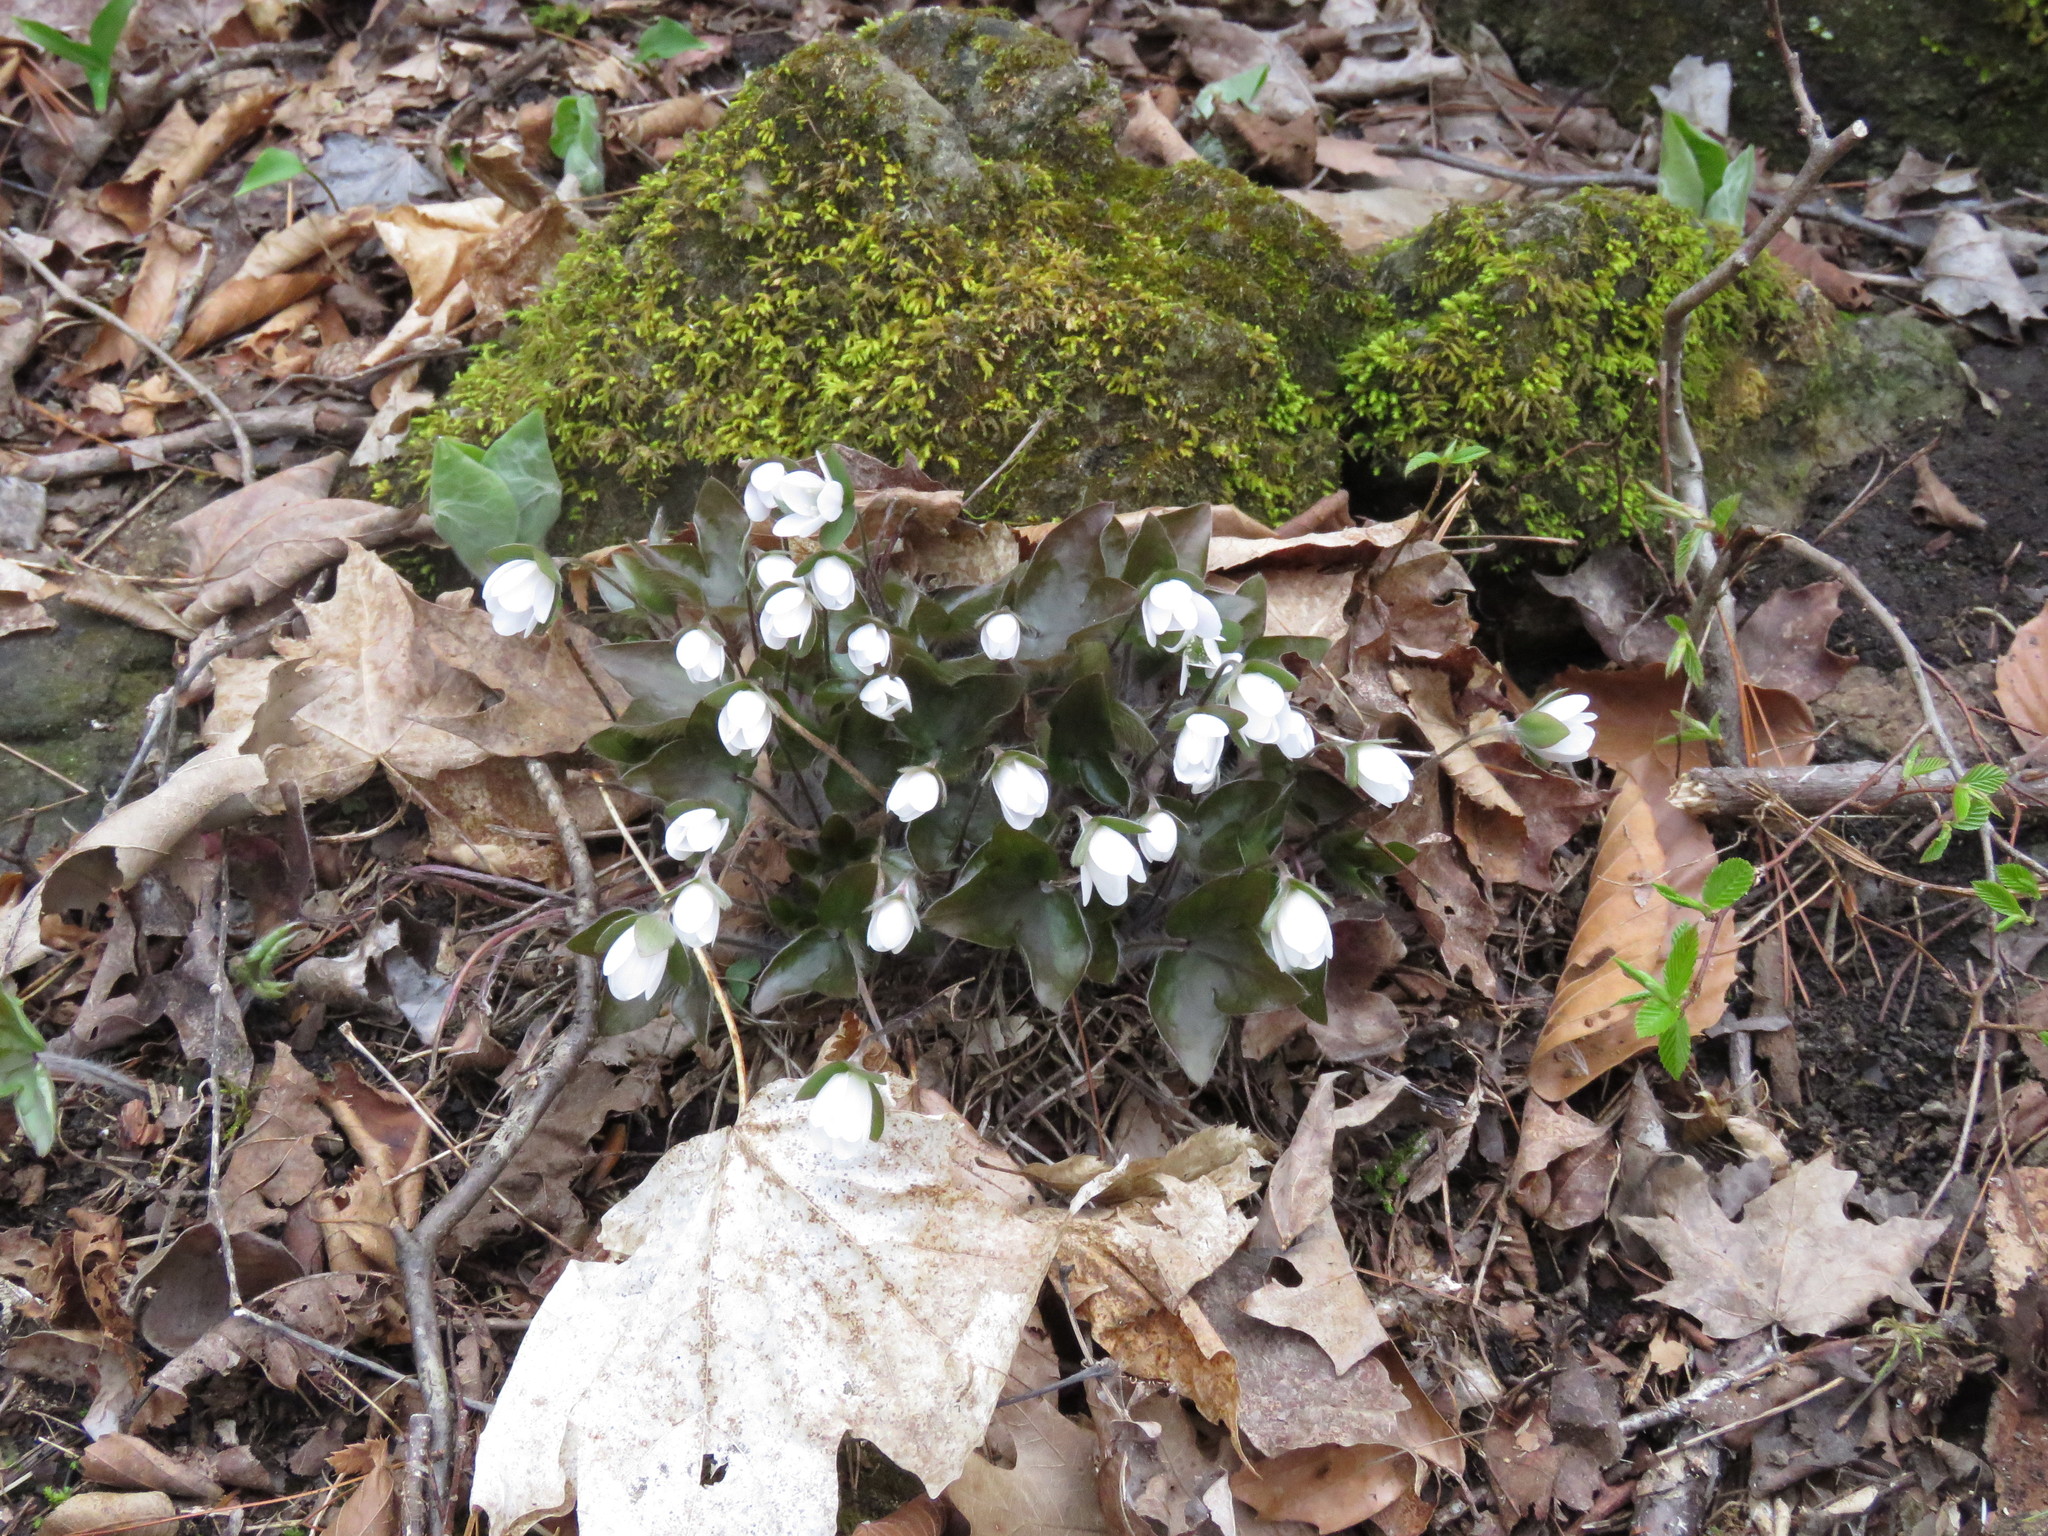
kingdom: Plantae
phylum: Tracheophyta
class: Magnoliopsida
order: Ranunculales
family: Ranunculaceae
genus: Hepatica
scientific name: Hepatica acutiloba
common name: Sharp-lobed hepatica
